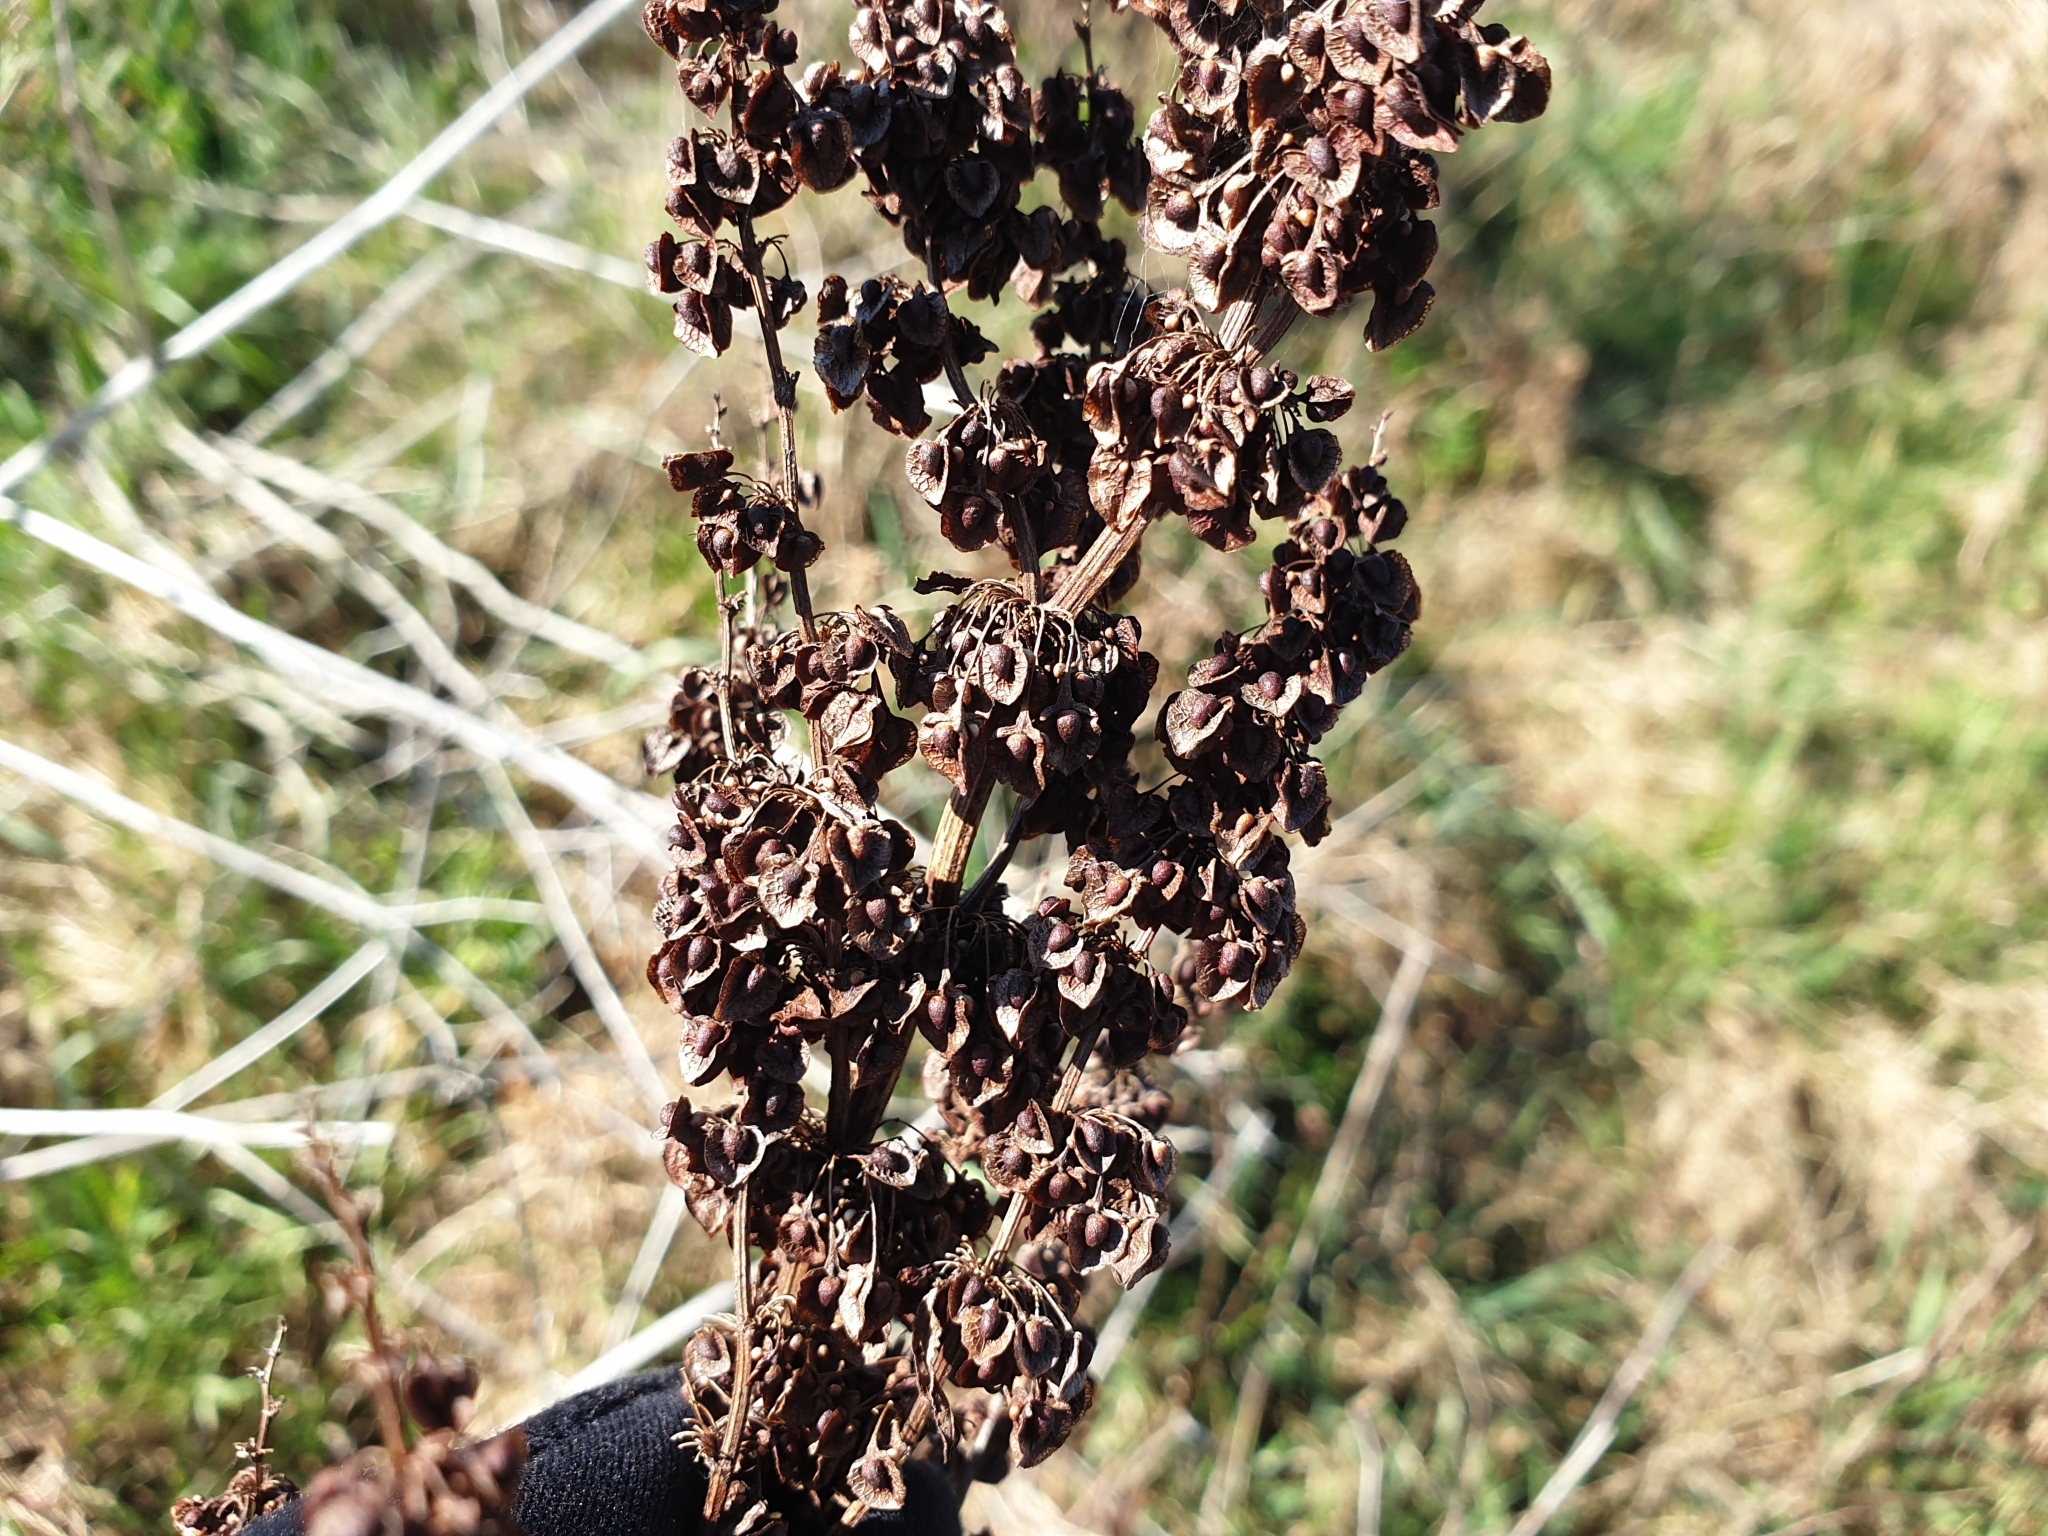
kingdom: Plantae
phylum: Tracheophyta
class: Magnoliopsida
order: Caryophyllales
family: Polygonaceae
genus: Rumex
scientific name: Rumex crispus
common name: Curled dock
